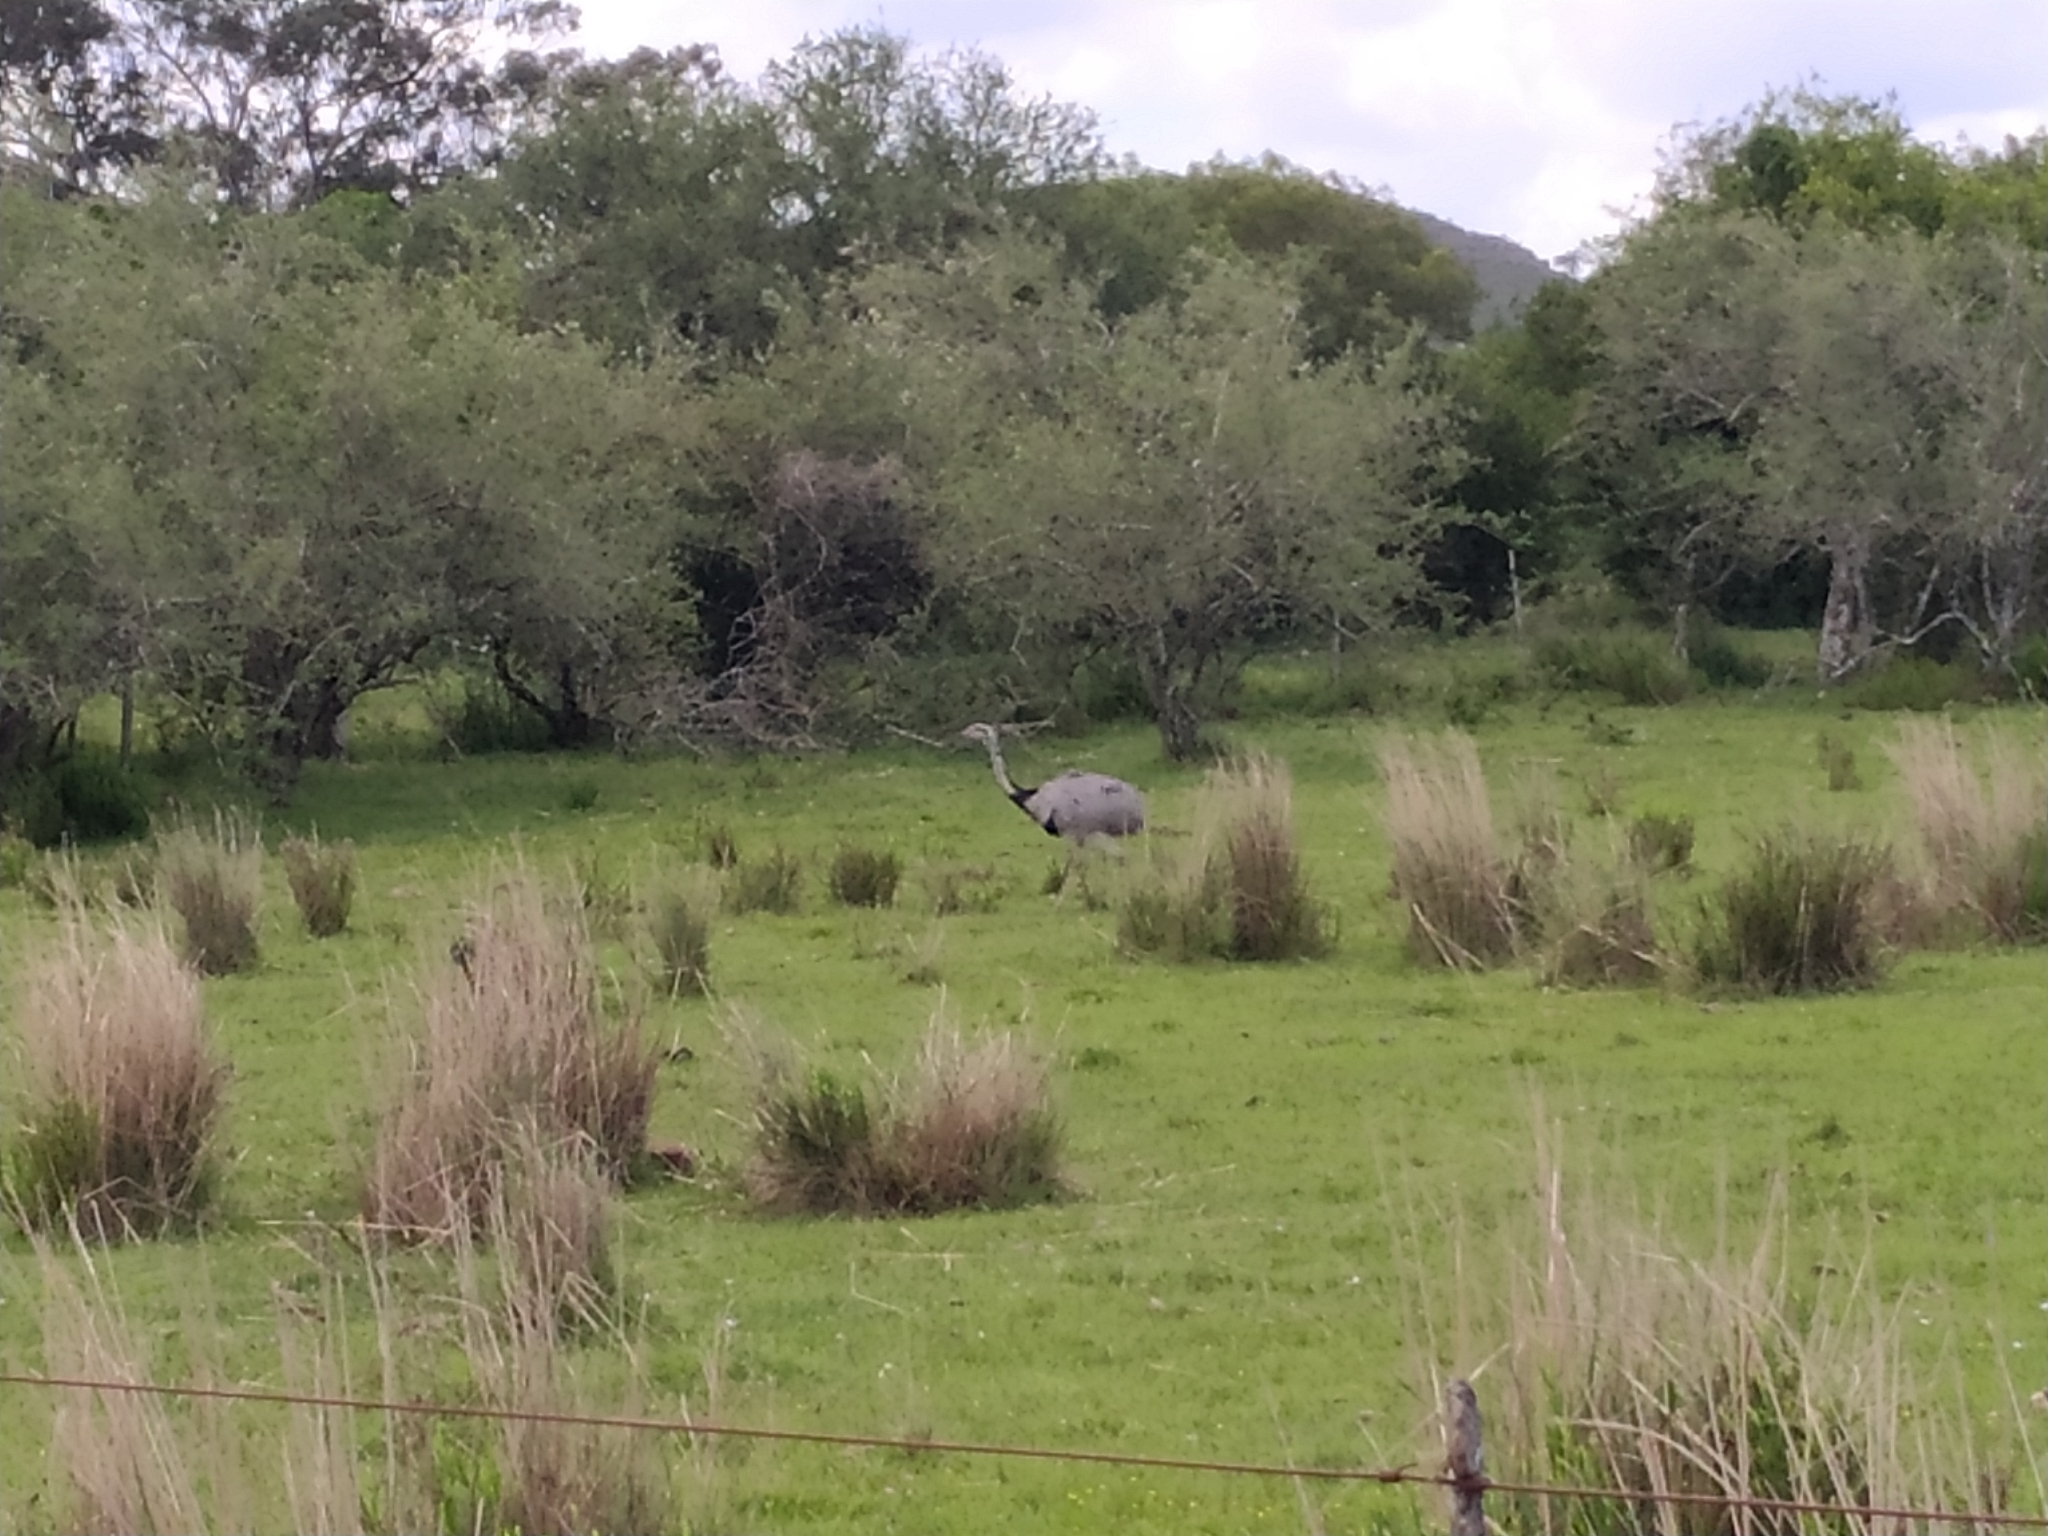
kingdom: Animalia
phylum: Chordata
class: Aves
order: Rheiformes
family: Rheidae
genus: Rhea
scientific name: Rhea americana
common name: Greater rhea
